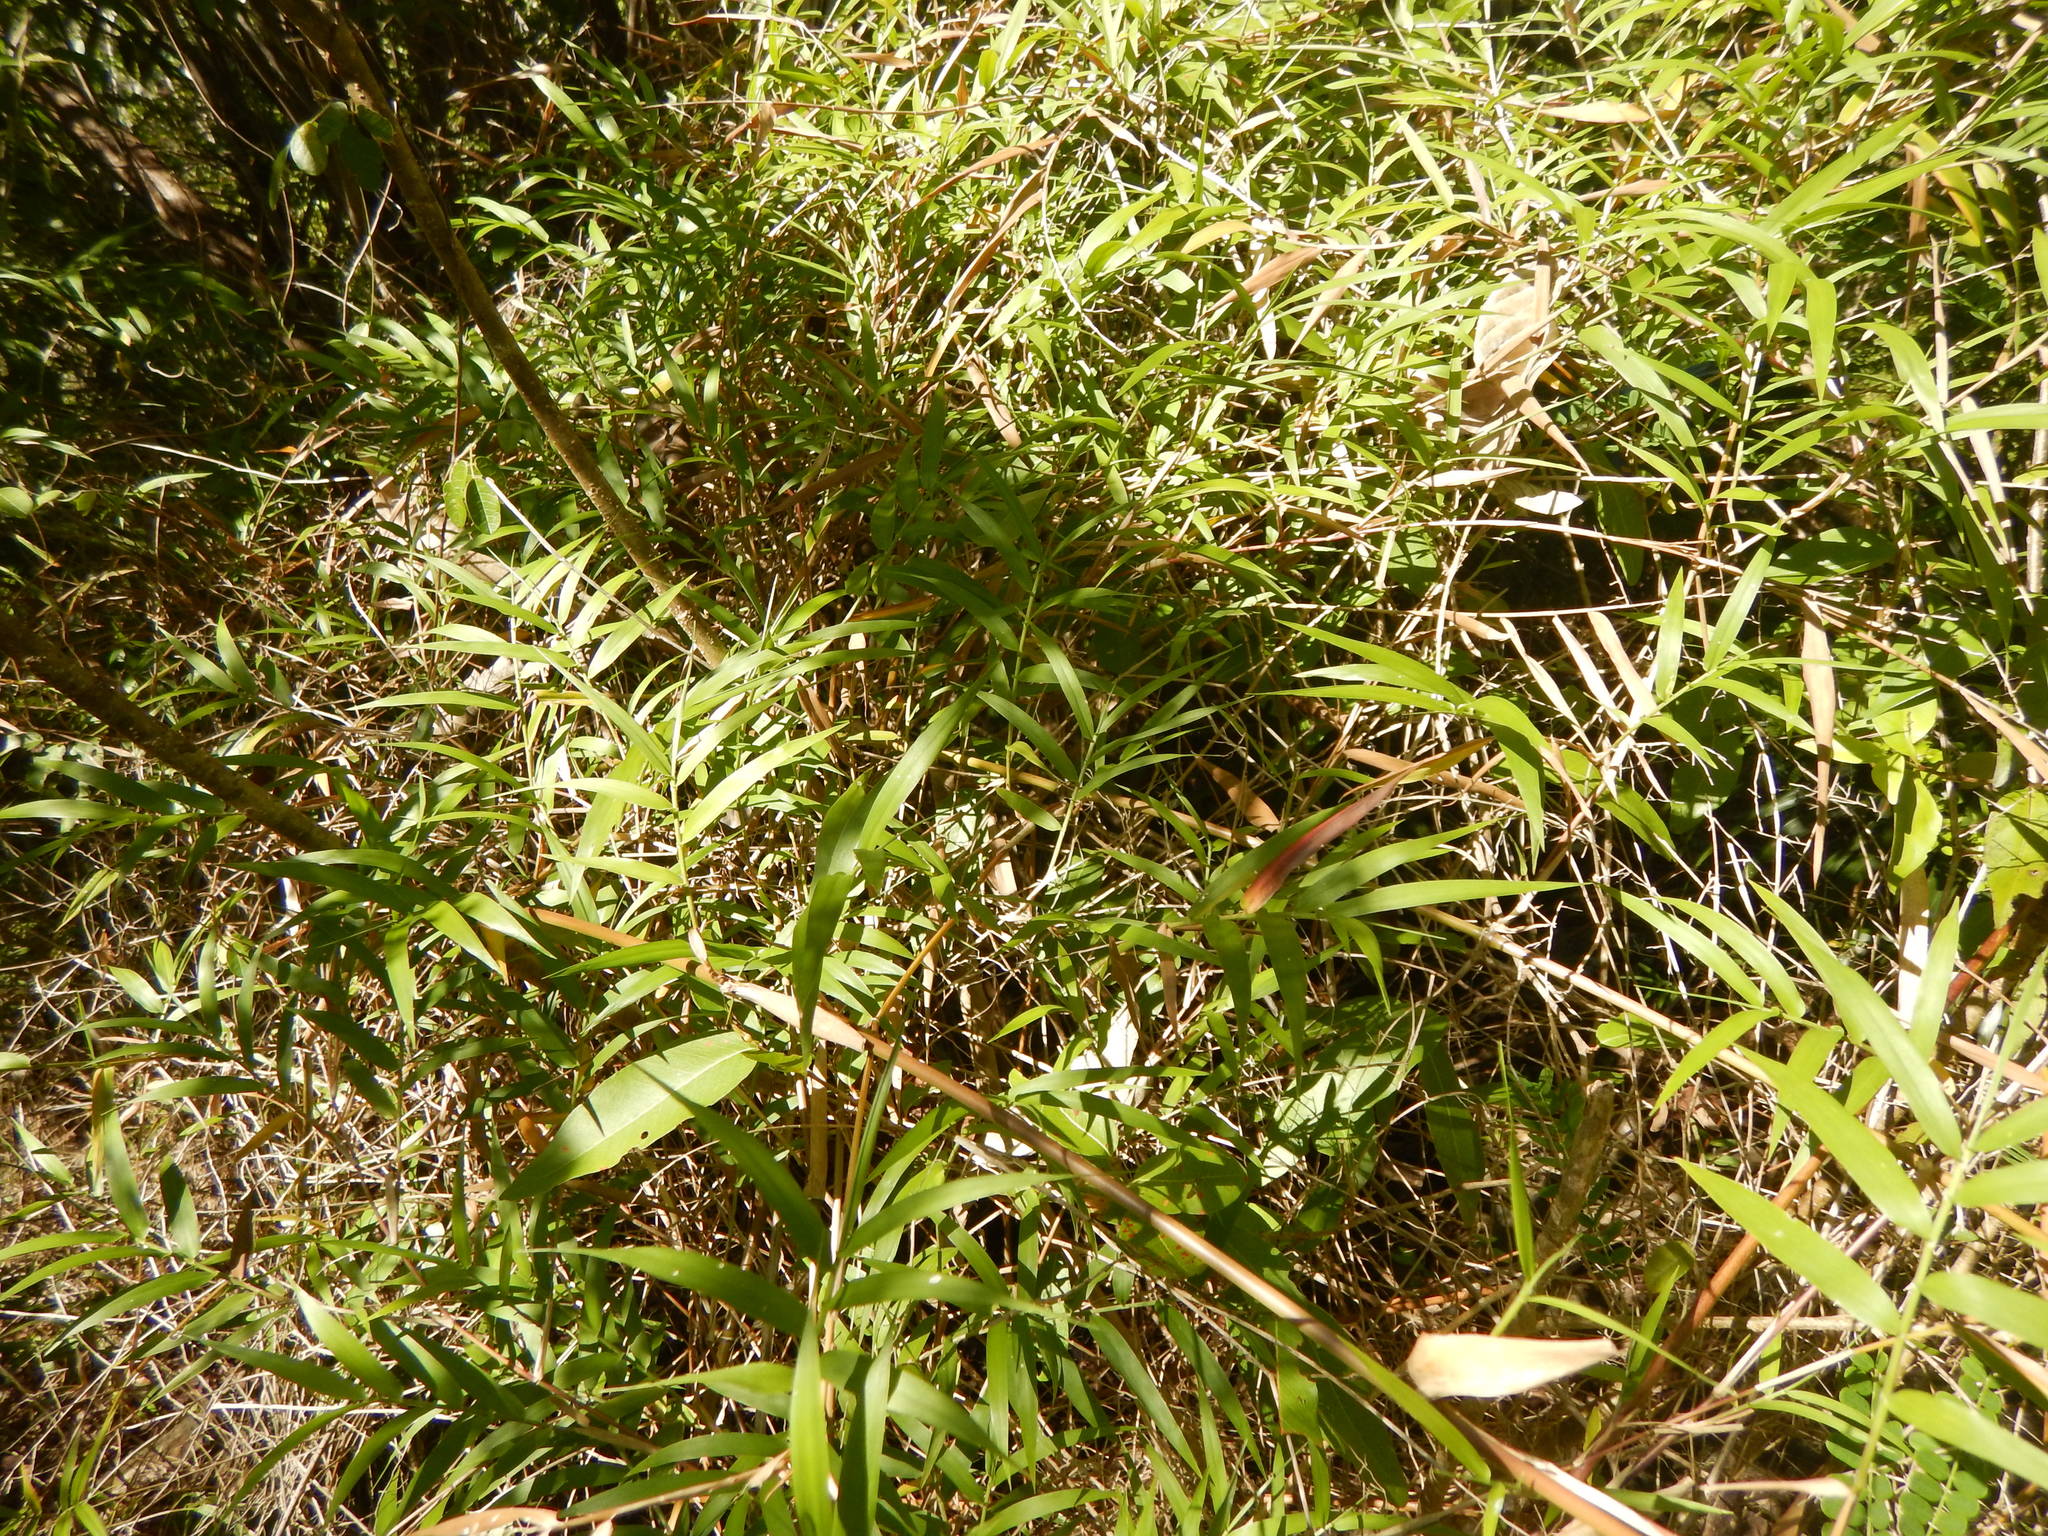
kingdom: Plantae
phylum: Tracheophyta
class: Liliopsida
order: Poales
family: Poaceae
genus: Lasiacis
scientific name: Lasiacis divaricata
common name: Smallcane
